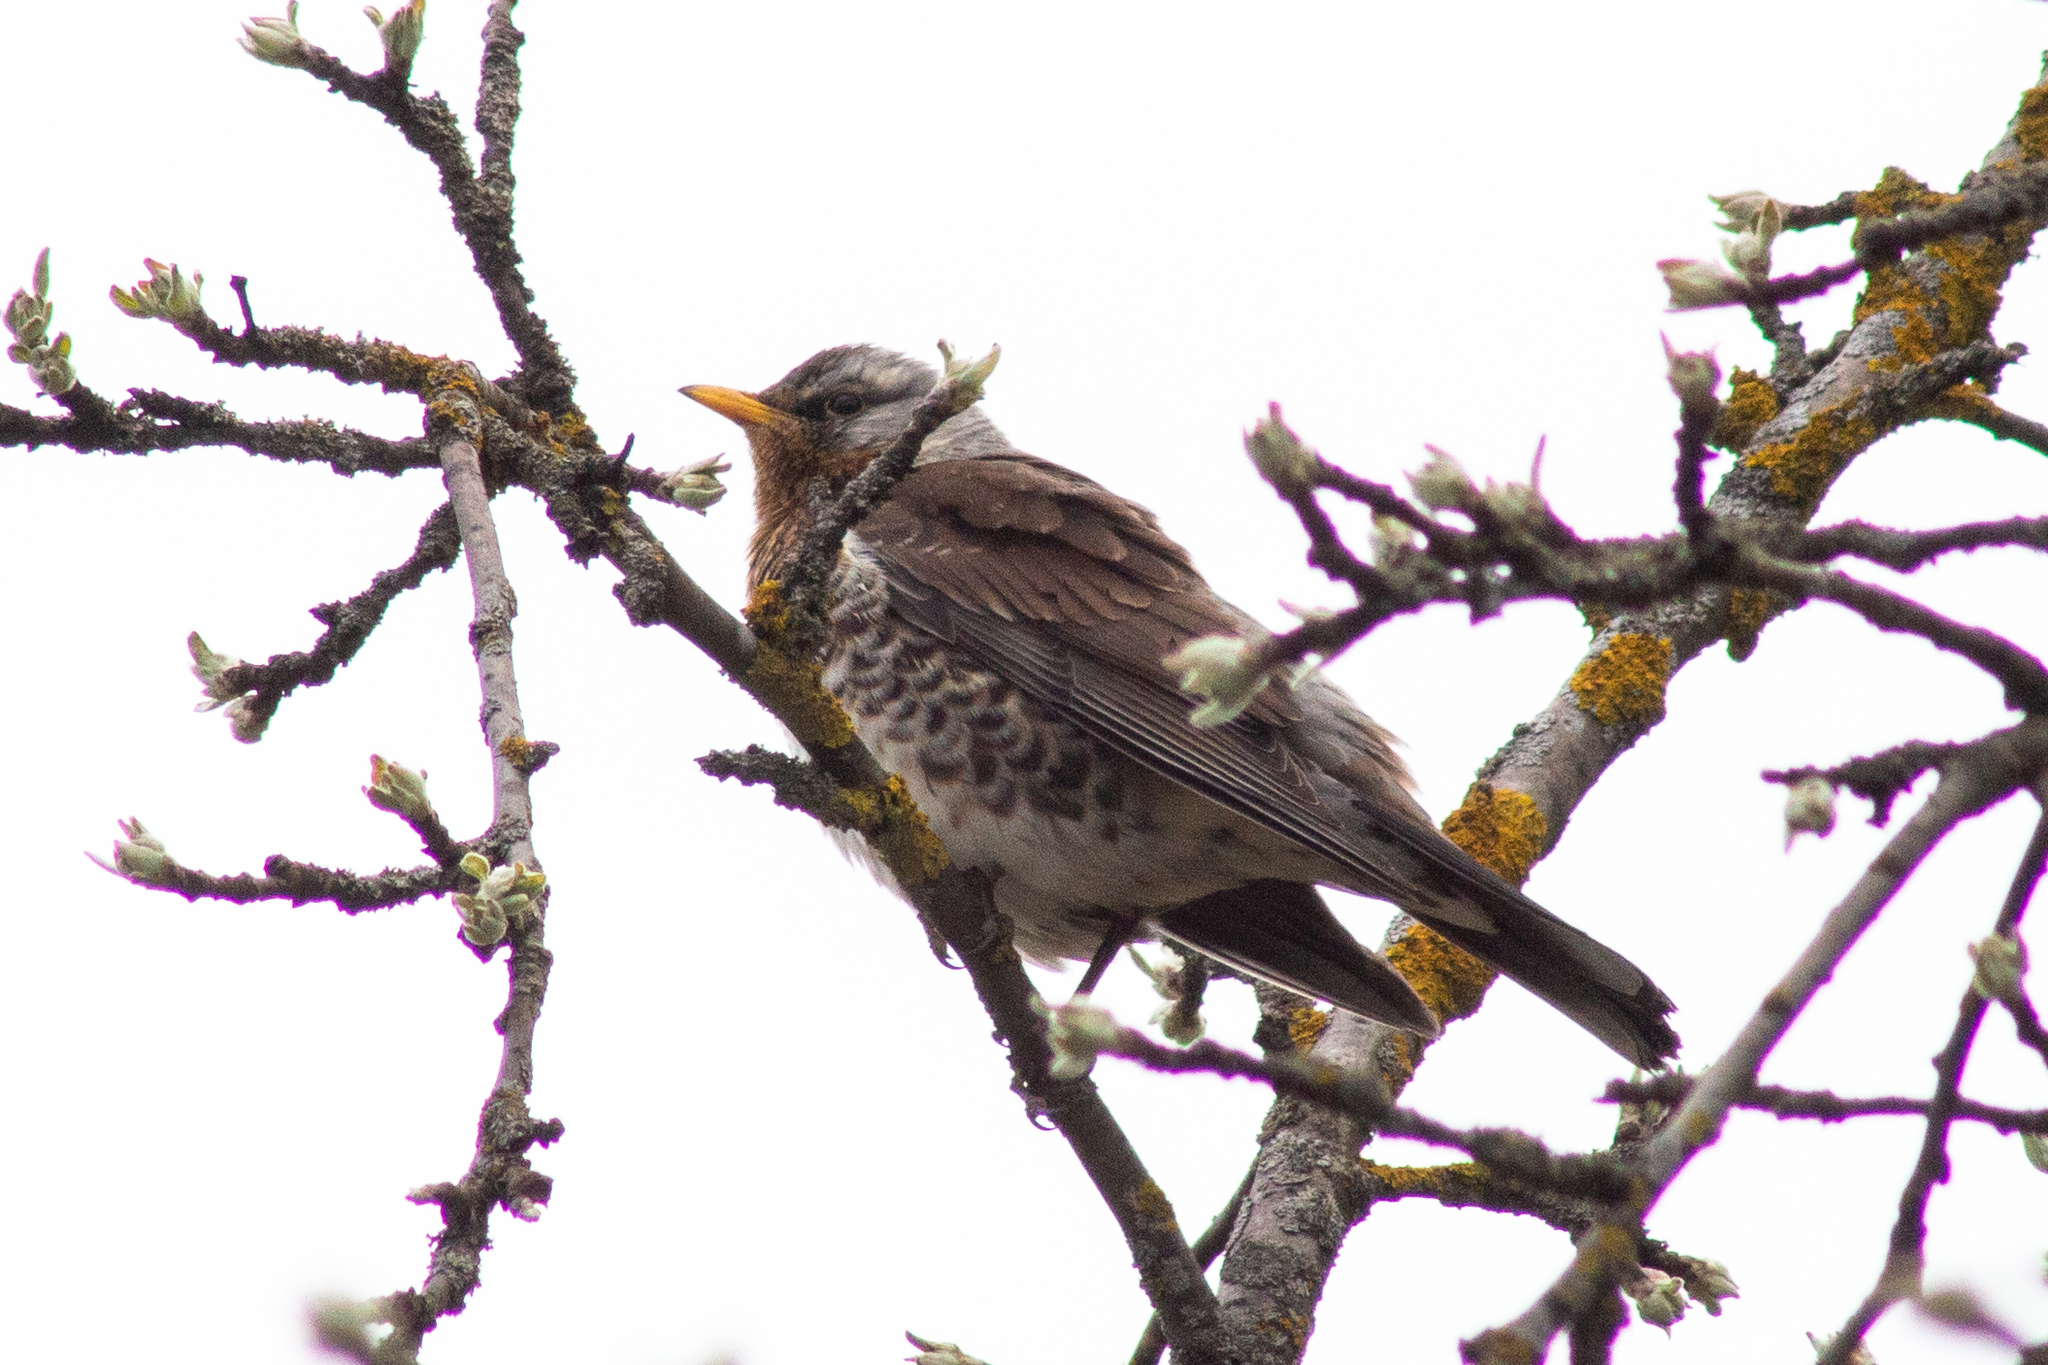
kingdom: Animalia
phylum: Chordata
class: Aves
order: Passeriformes
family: Turdidae
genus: Turdus
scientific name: Turdus pilaris
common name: Fieldfare
